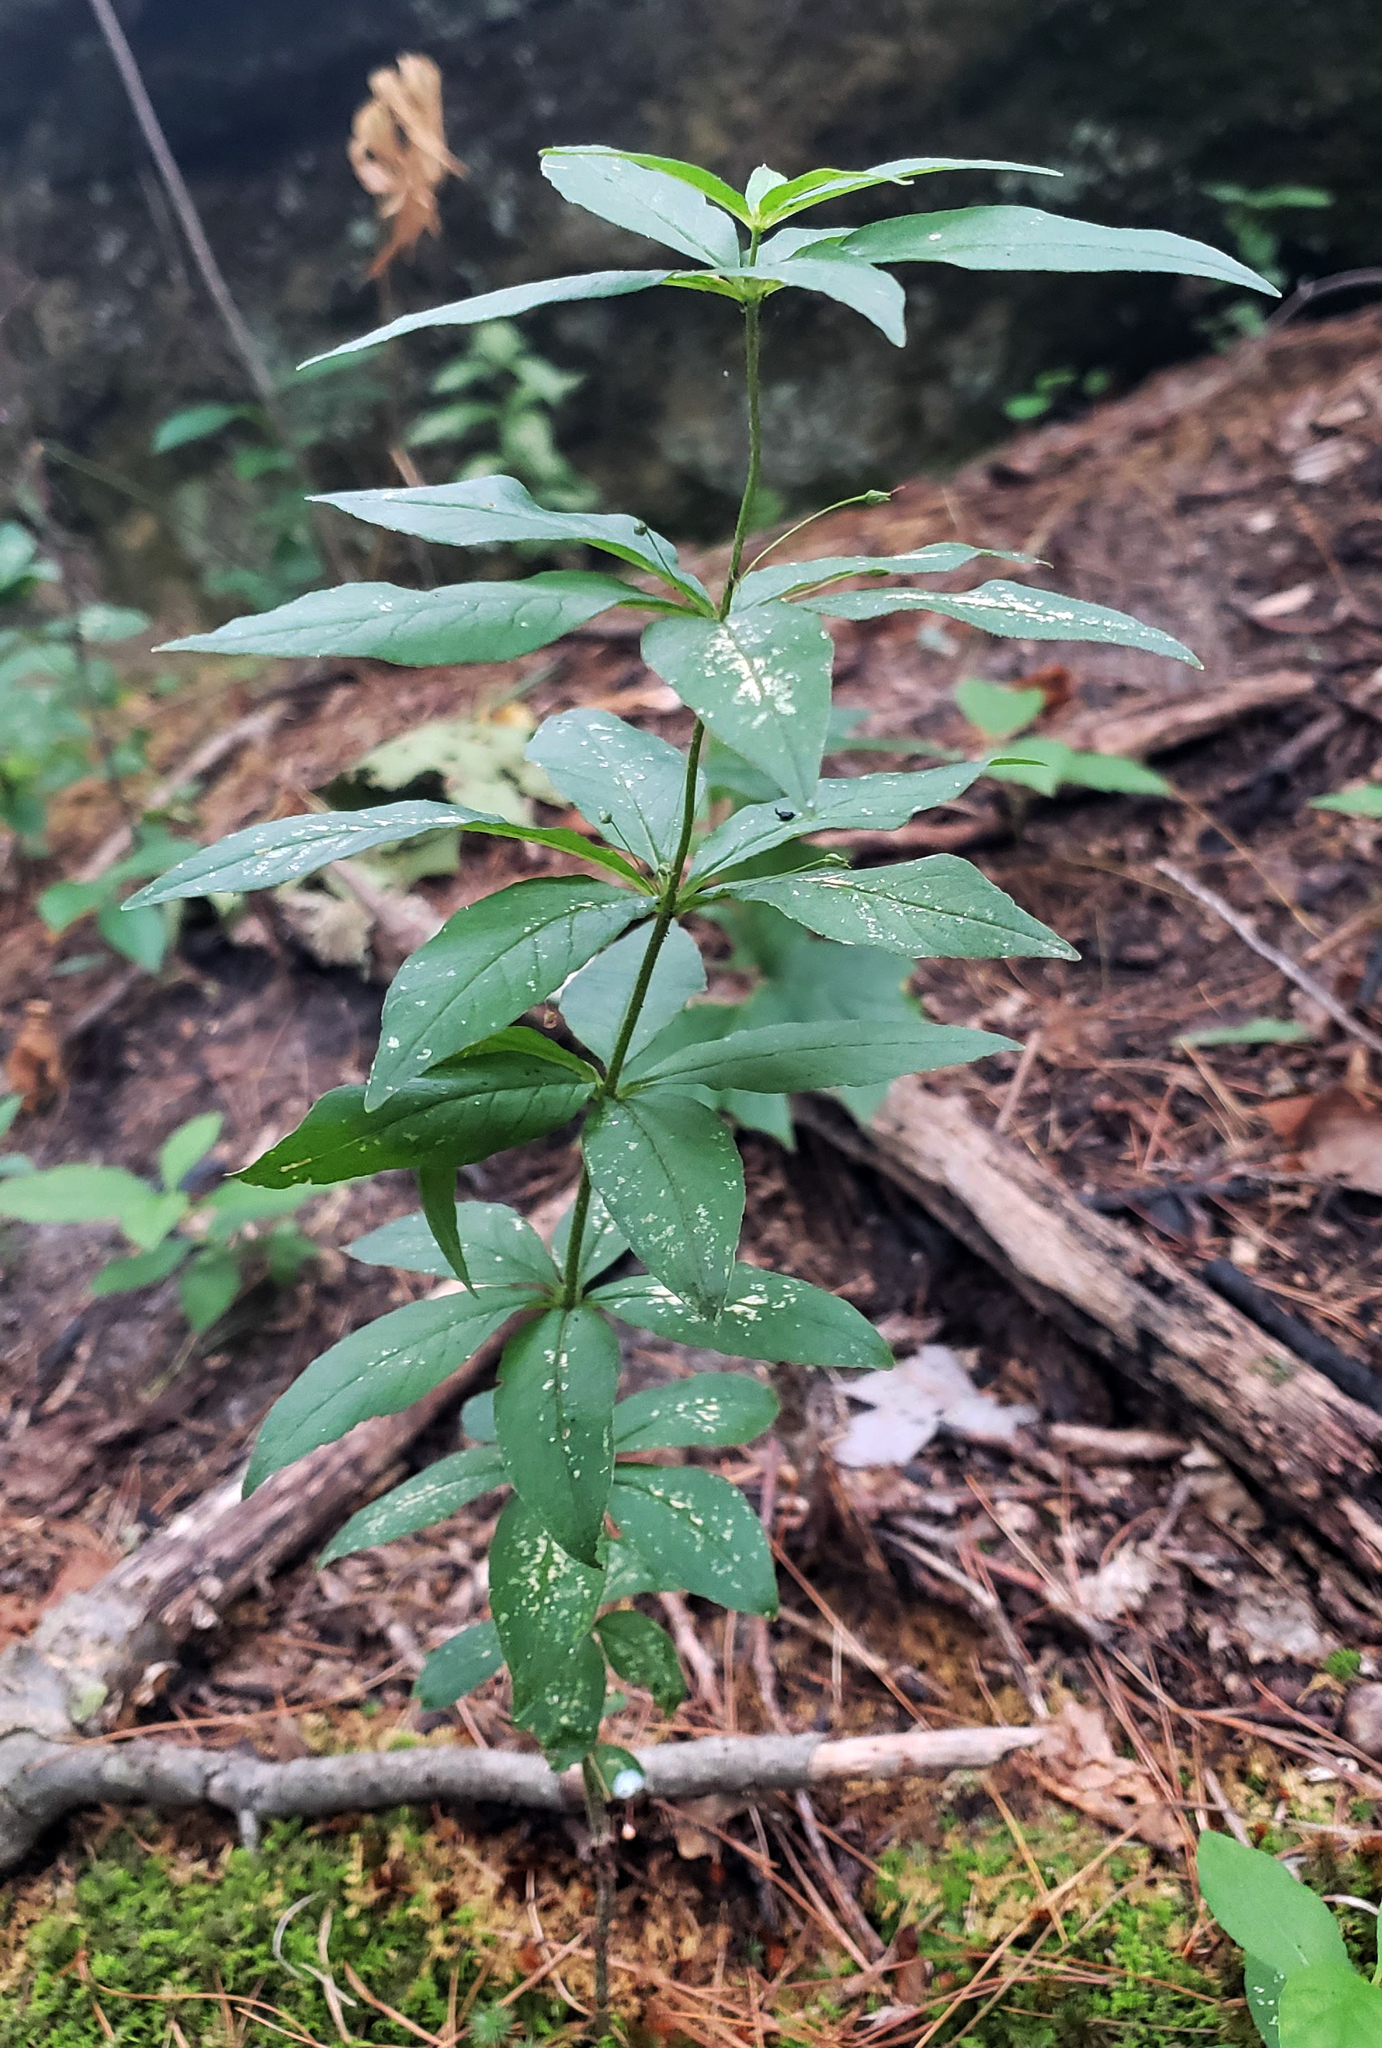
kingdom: Plantae
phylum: Tracheophyta
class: Magnoliopsida
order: Ericales
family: Primulaceae
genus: Lysimachia
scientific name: Lysimachia quadrifolia
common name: Whorled loosestrife
